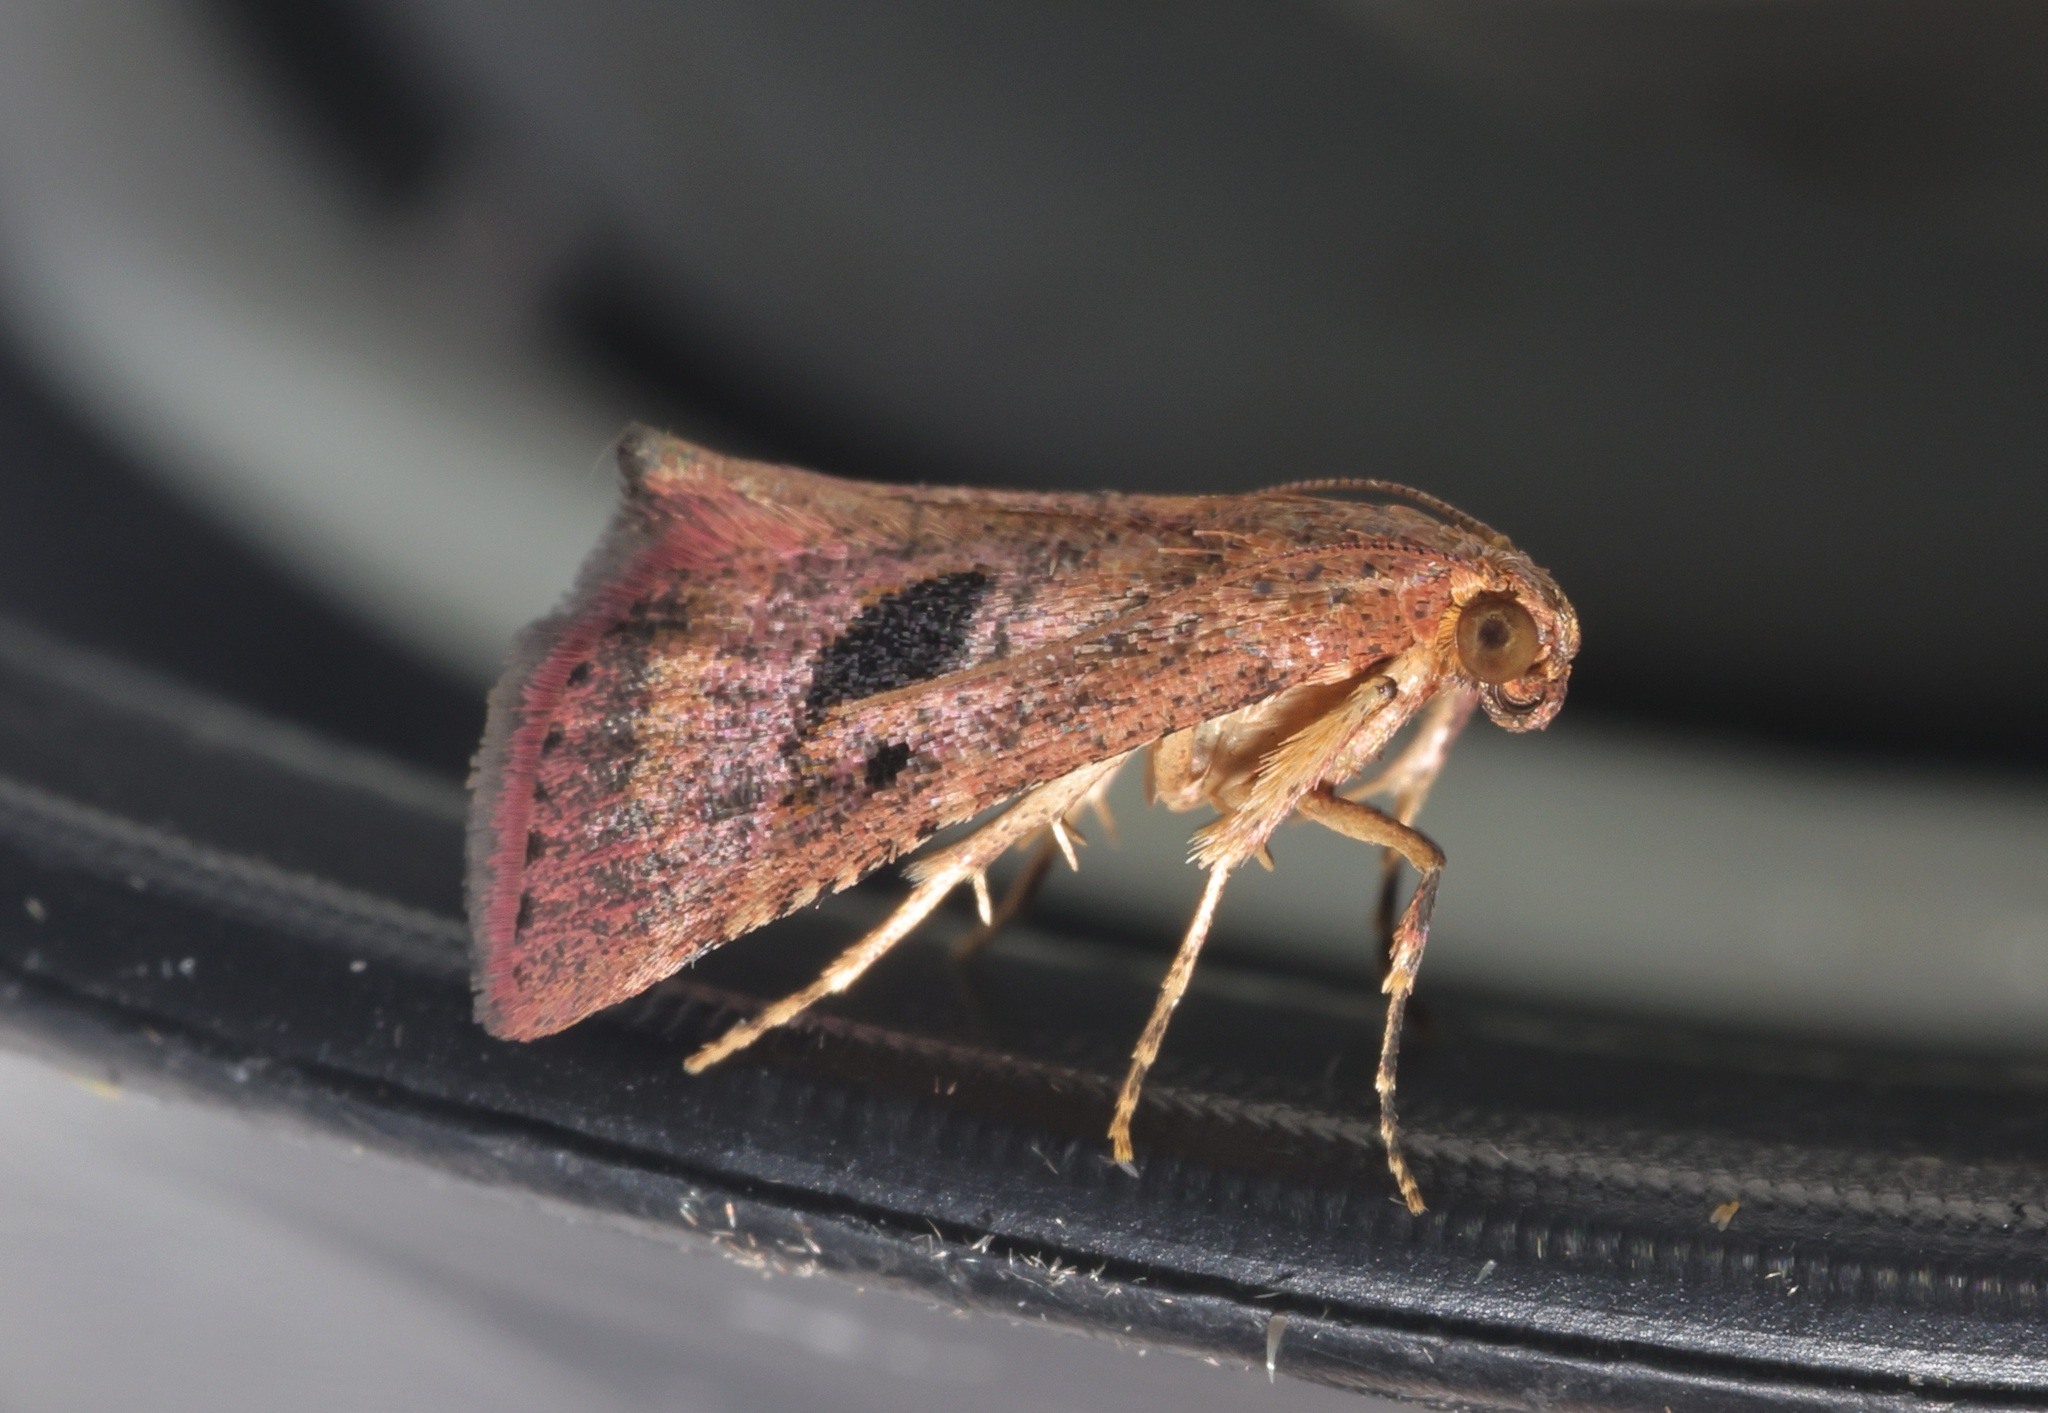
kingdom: Animalia
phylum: Arthropoda
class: Insecta
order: Lepidoptera
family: Pyralidae
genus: Perisseretma
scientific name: Perisseretma endotrichalis
